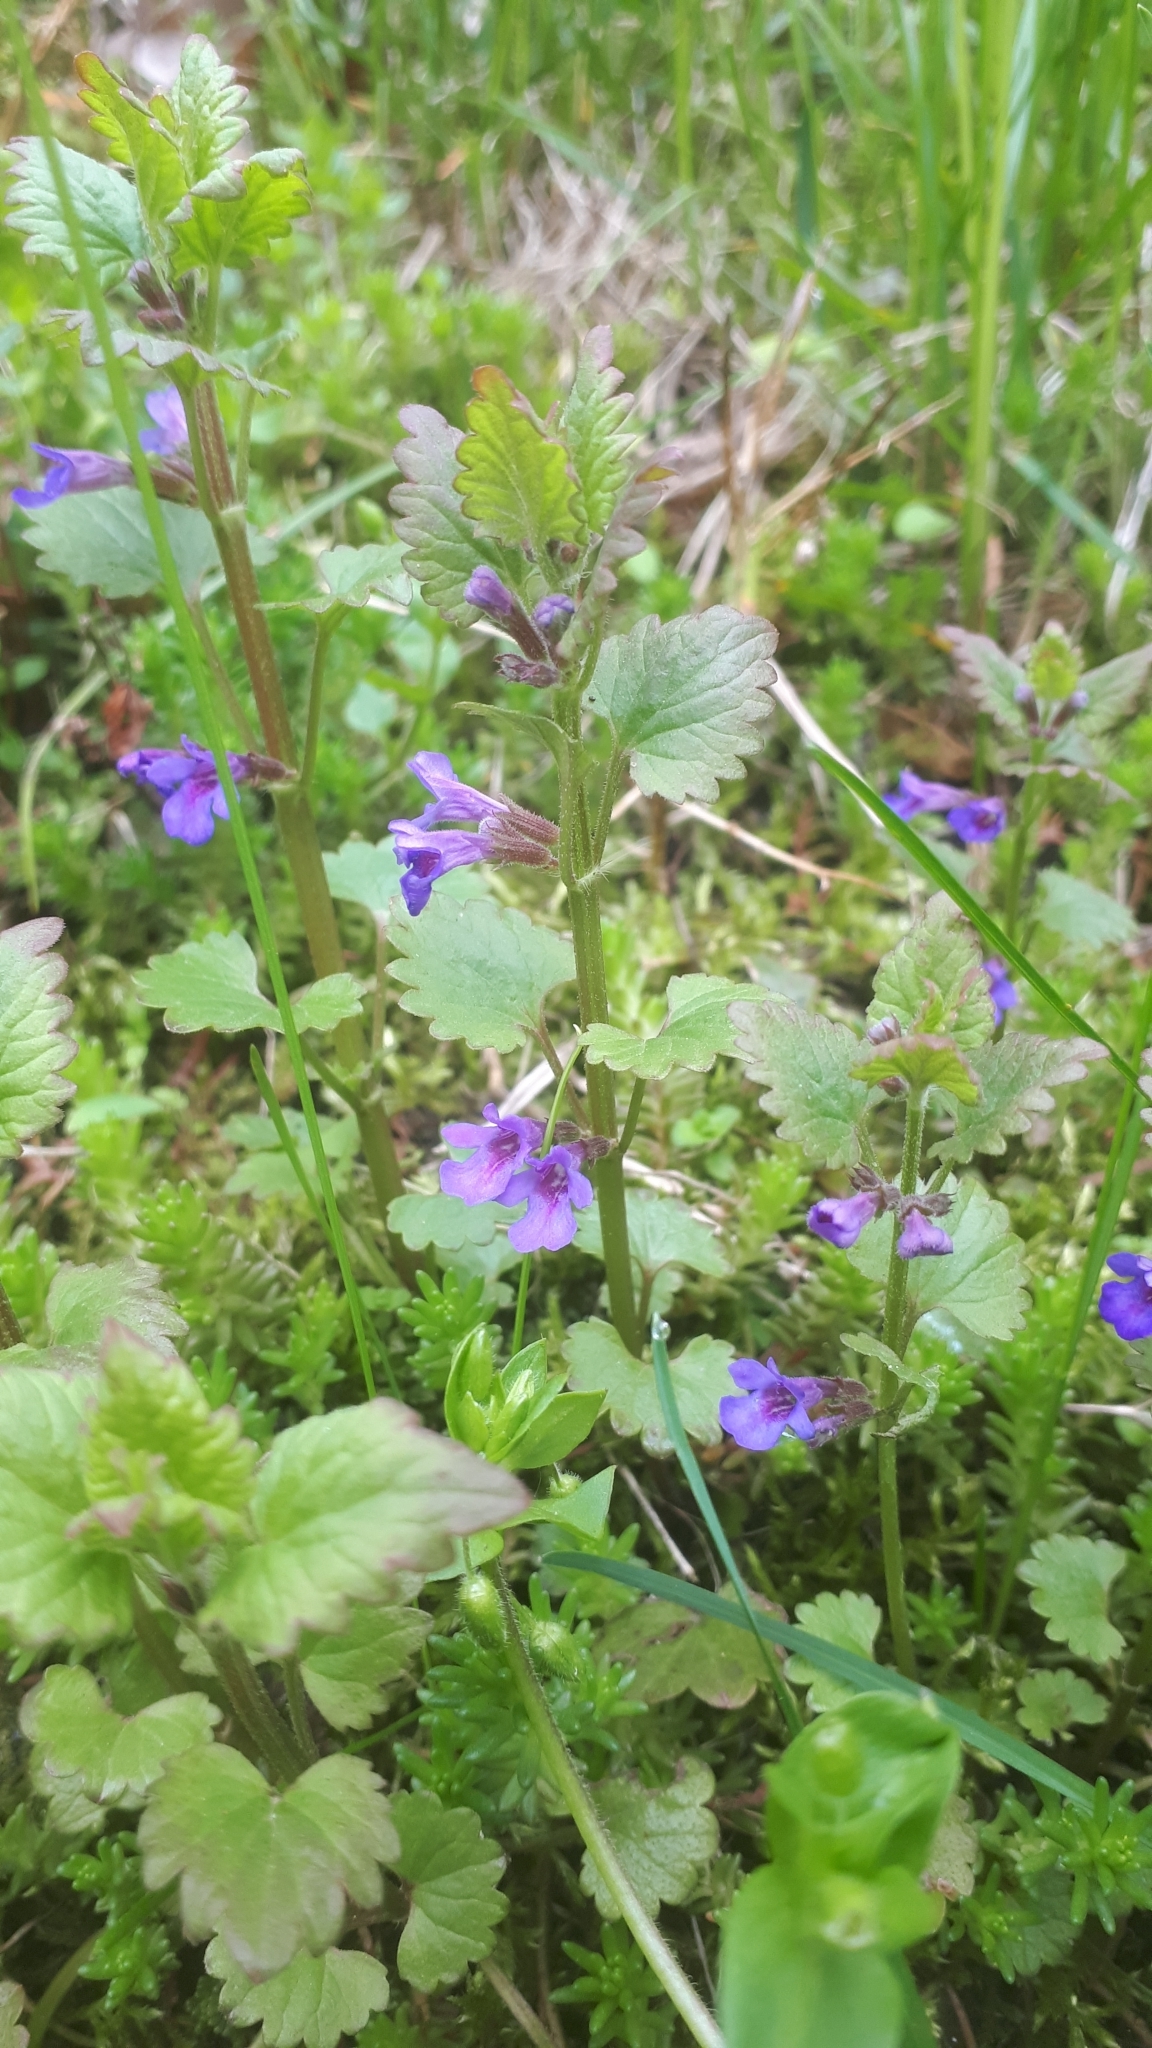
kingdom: Plantae
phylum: Tracheophyta
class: Magnoliopsida
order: Lamiales
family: Lamiaceae
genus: Glechoma
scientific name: Glechoma hederacea
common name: Ground ivy
